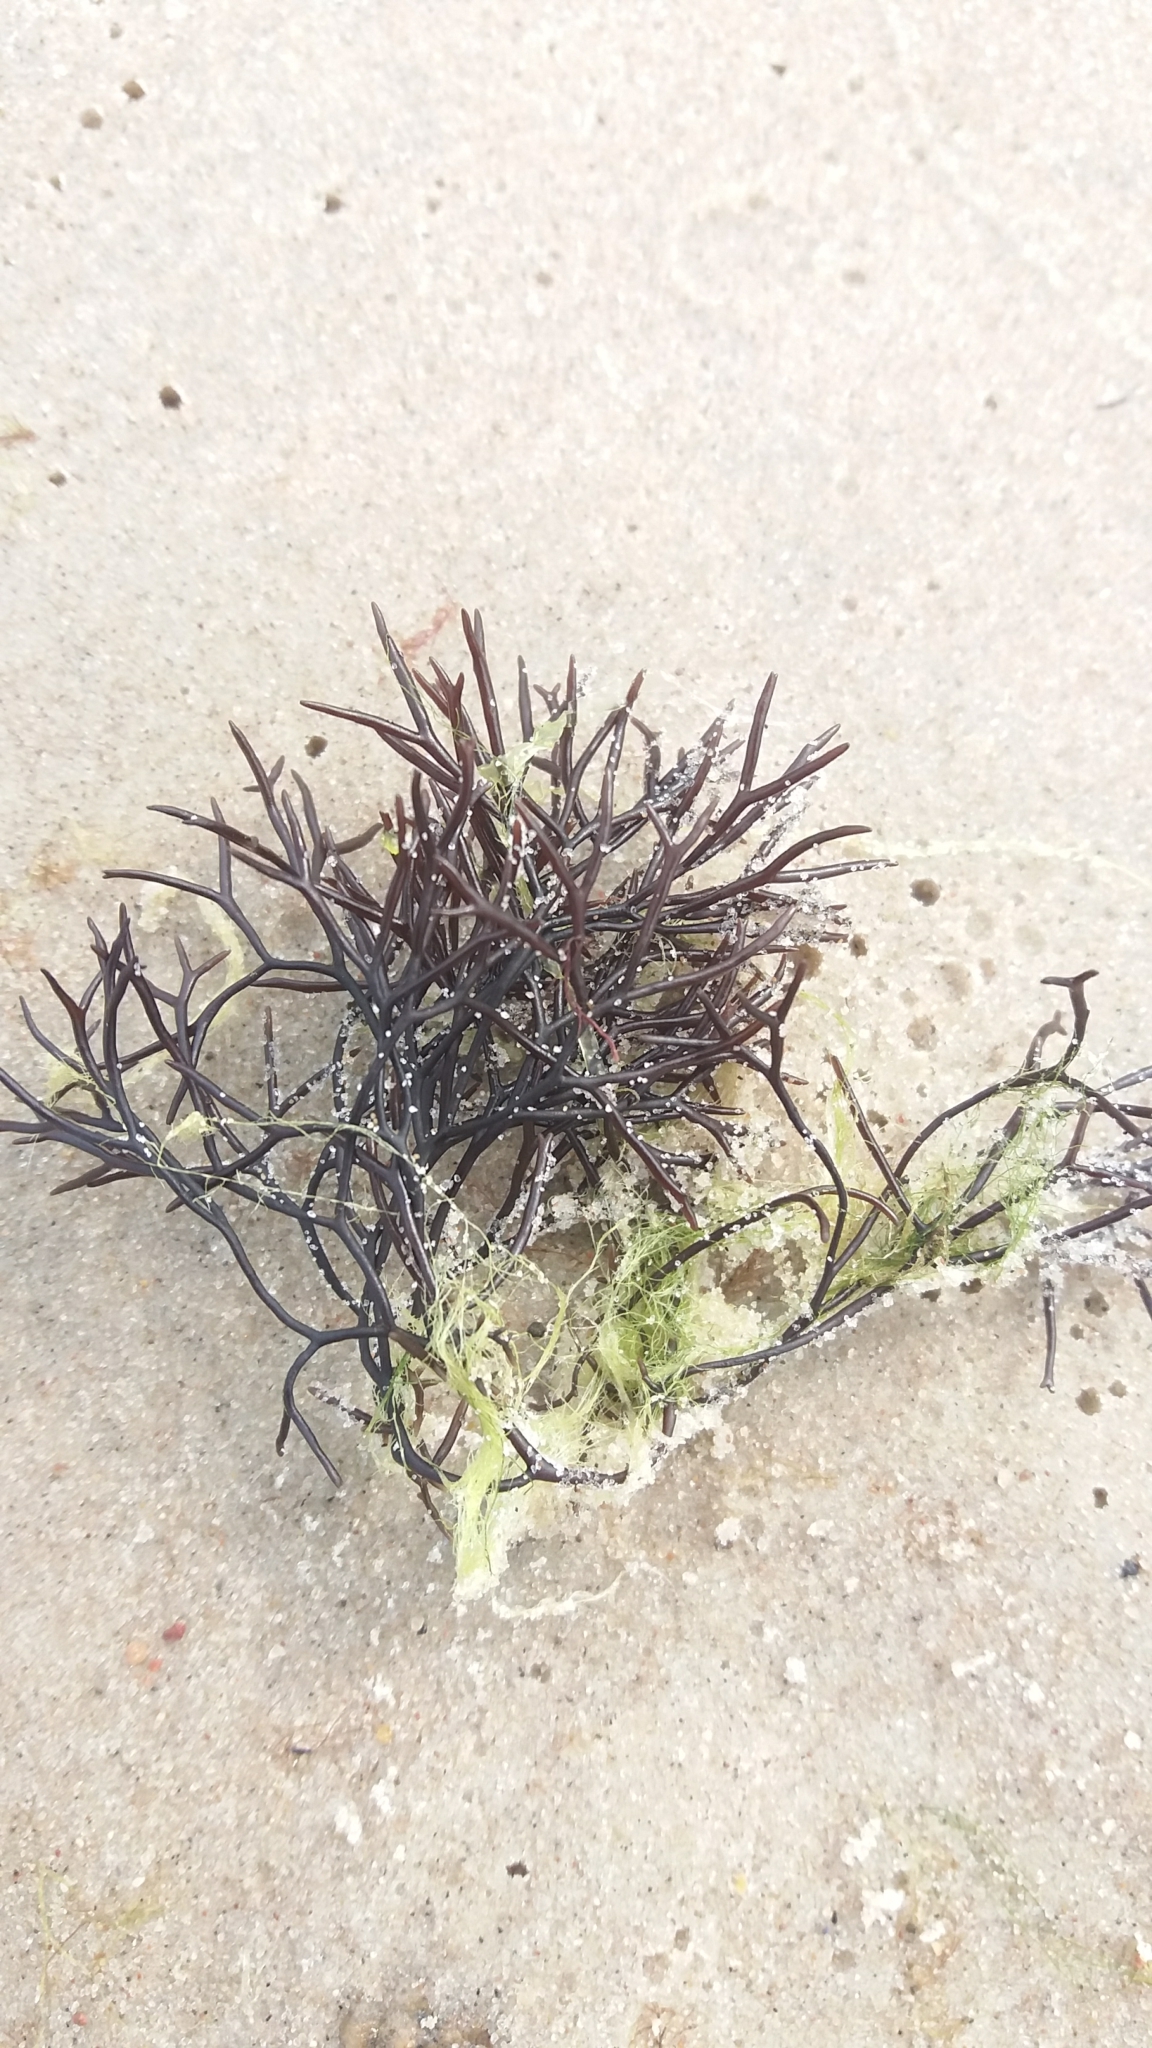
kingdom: Plantae
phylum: Rhodophyta
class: Florideophyceae
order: Gigartinales
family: Furcellariaceae
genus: Furcellaria
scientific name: Furcellaria lumbricalis
